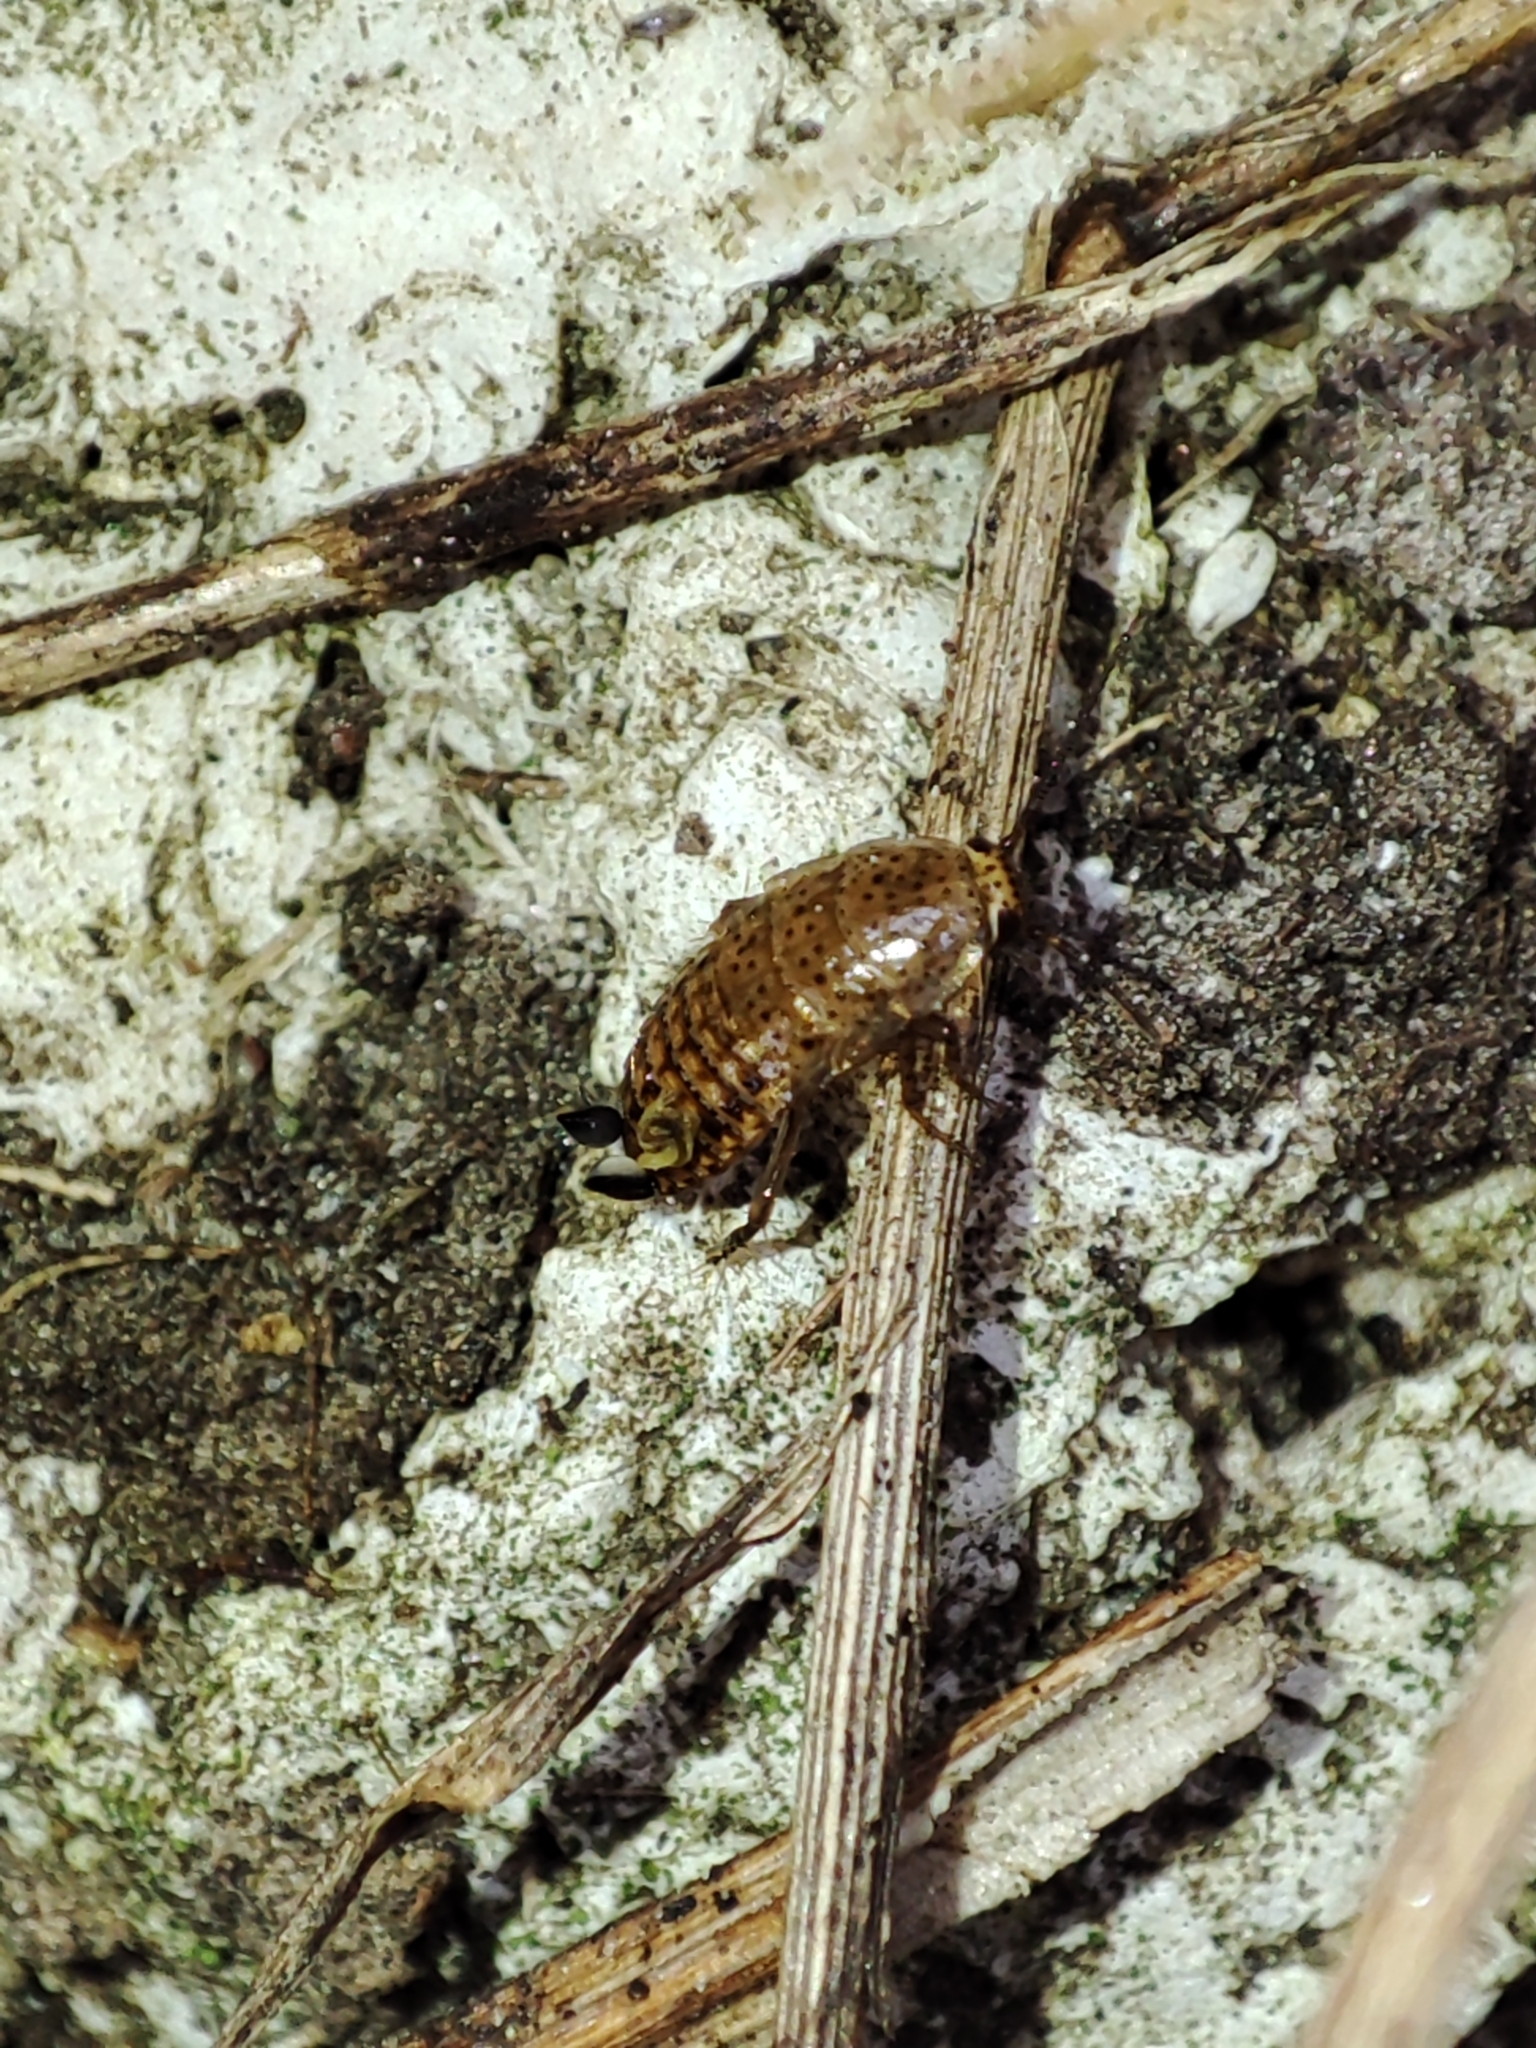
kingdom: Animalia
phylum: Arthropoda
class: Insecta
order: Blattodea
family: Ectobiidae
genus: Ectobius
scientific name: Ectobius lapponicus
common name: Dusky cockroach
